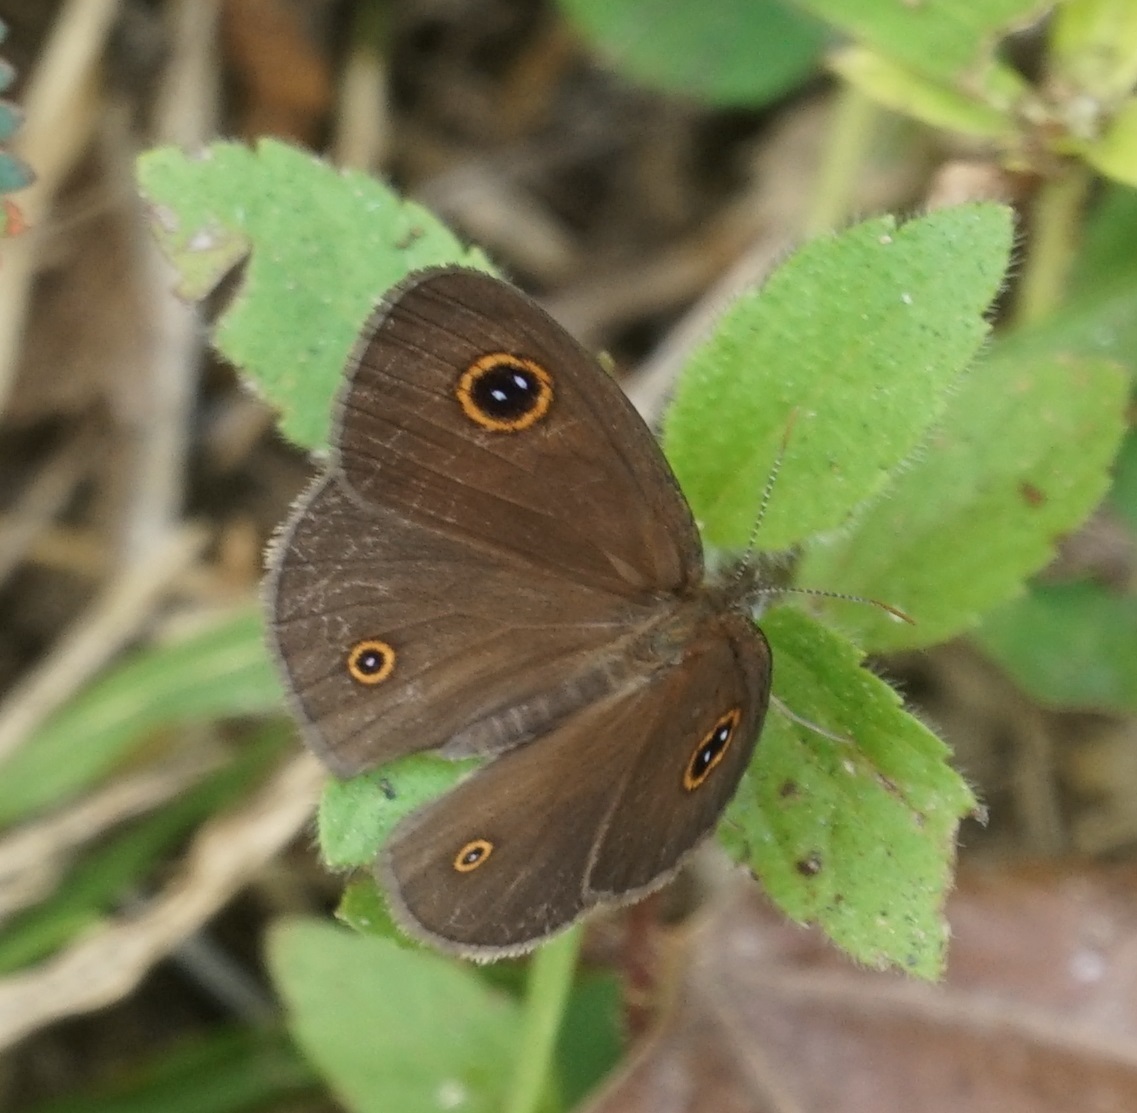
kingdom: Animalia
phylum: Arthropoda
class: Insecta
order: Lepidoptera
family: Nymphalidae
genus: Ypthima
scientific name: Ypthima arctous
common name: Dusky knight
